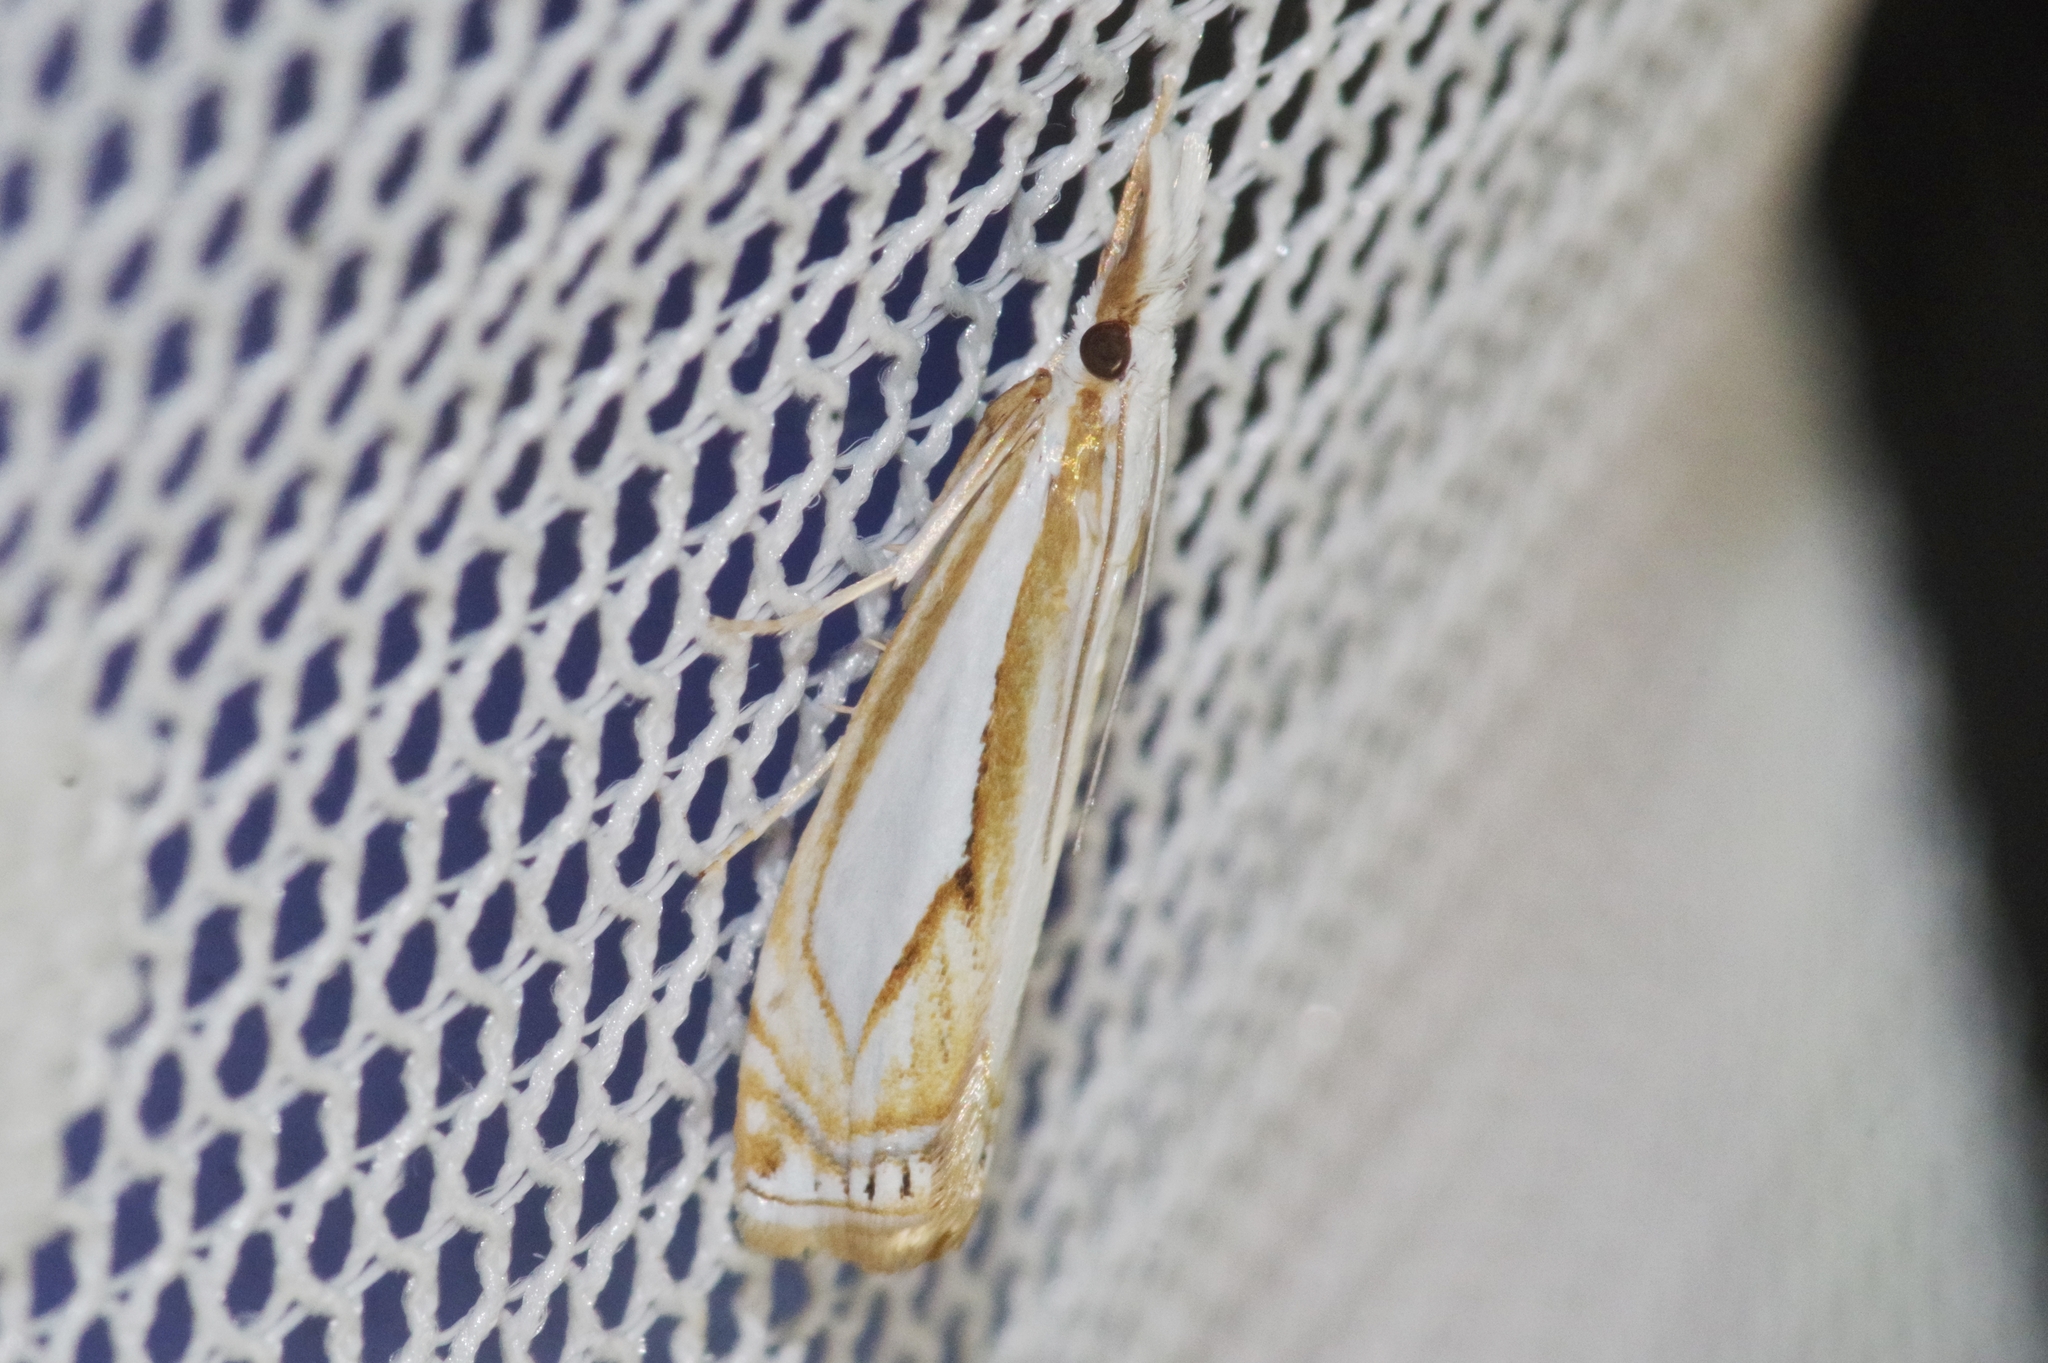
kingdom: Animalia
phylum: Arthropoda
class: Insecta
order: Lepidoptera
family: Crambidae
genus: Crambus
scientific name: Crambus argyrophorus
